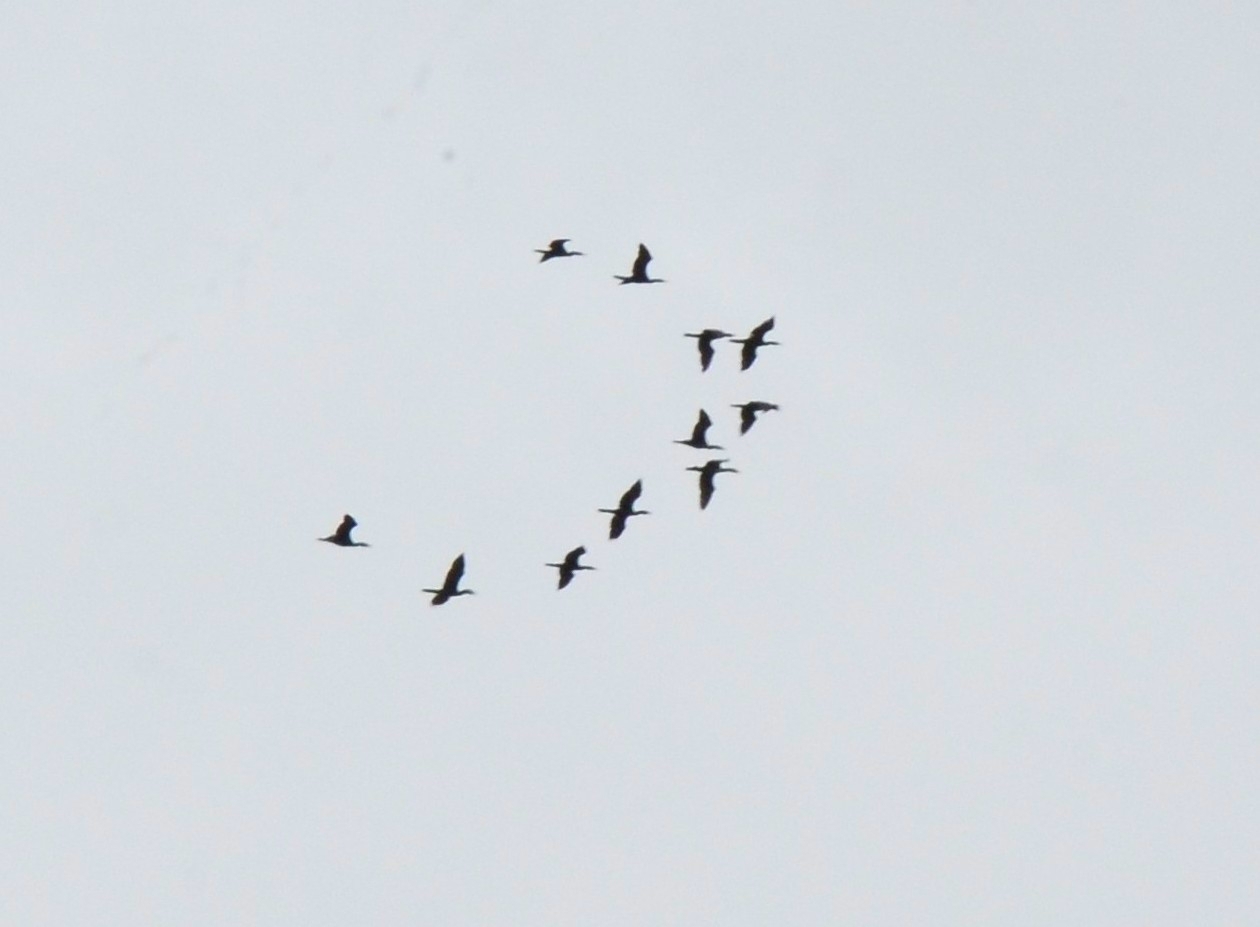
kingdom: Animalia
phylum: Chordata
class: Aves
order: Suliformes
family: Phalacrocoracidae
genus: Phalacrocorax
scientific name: Phalacrocorax fuscicollis
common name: Indian cormorant
